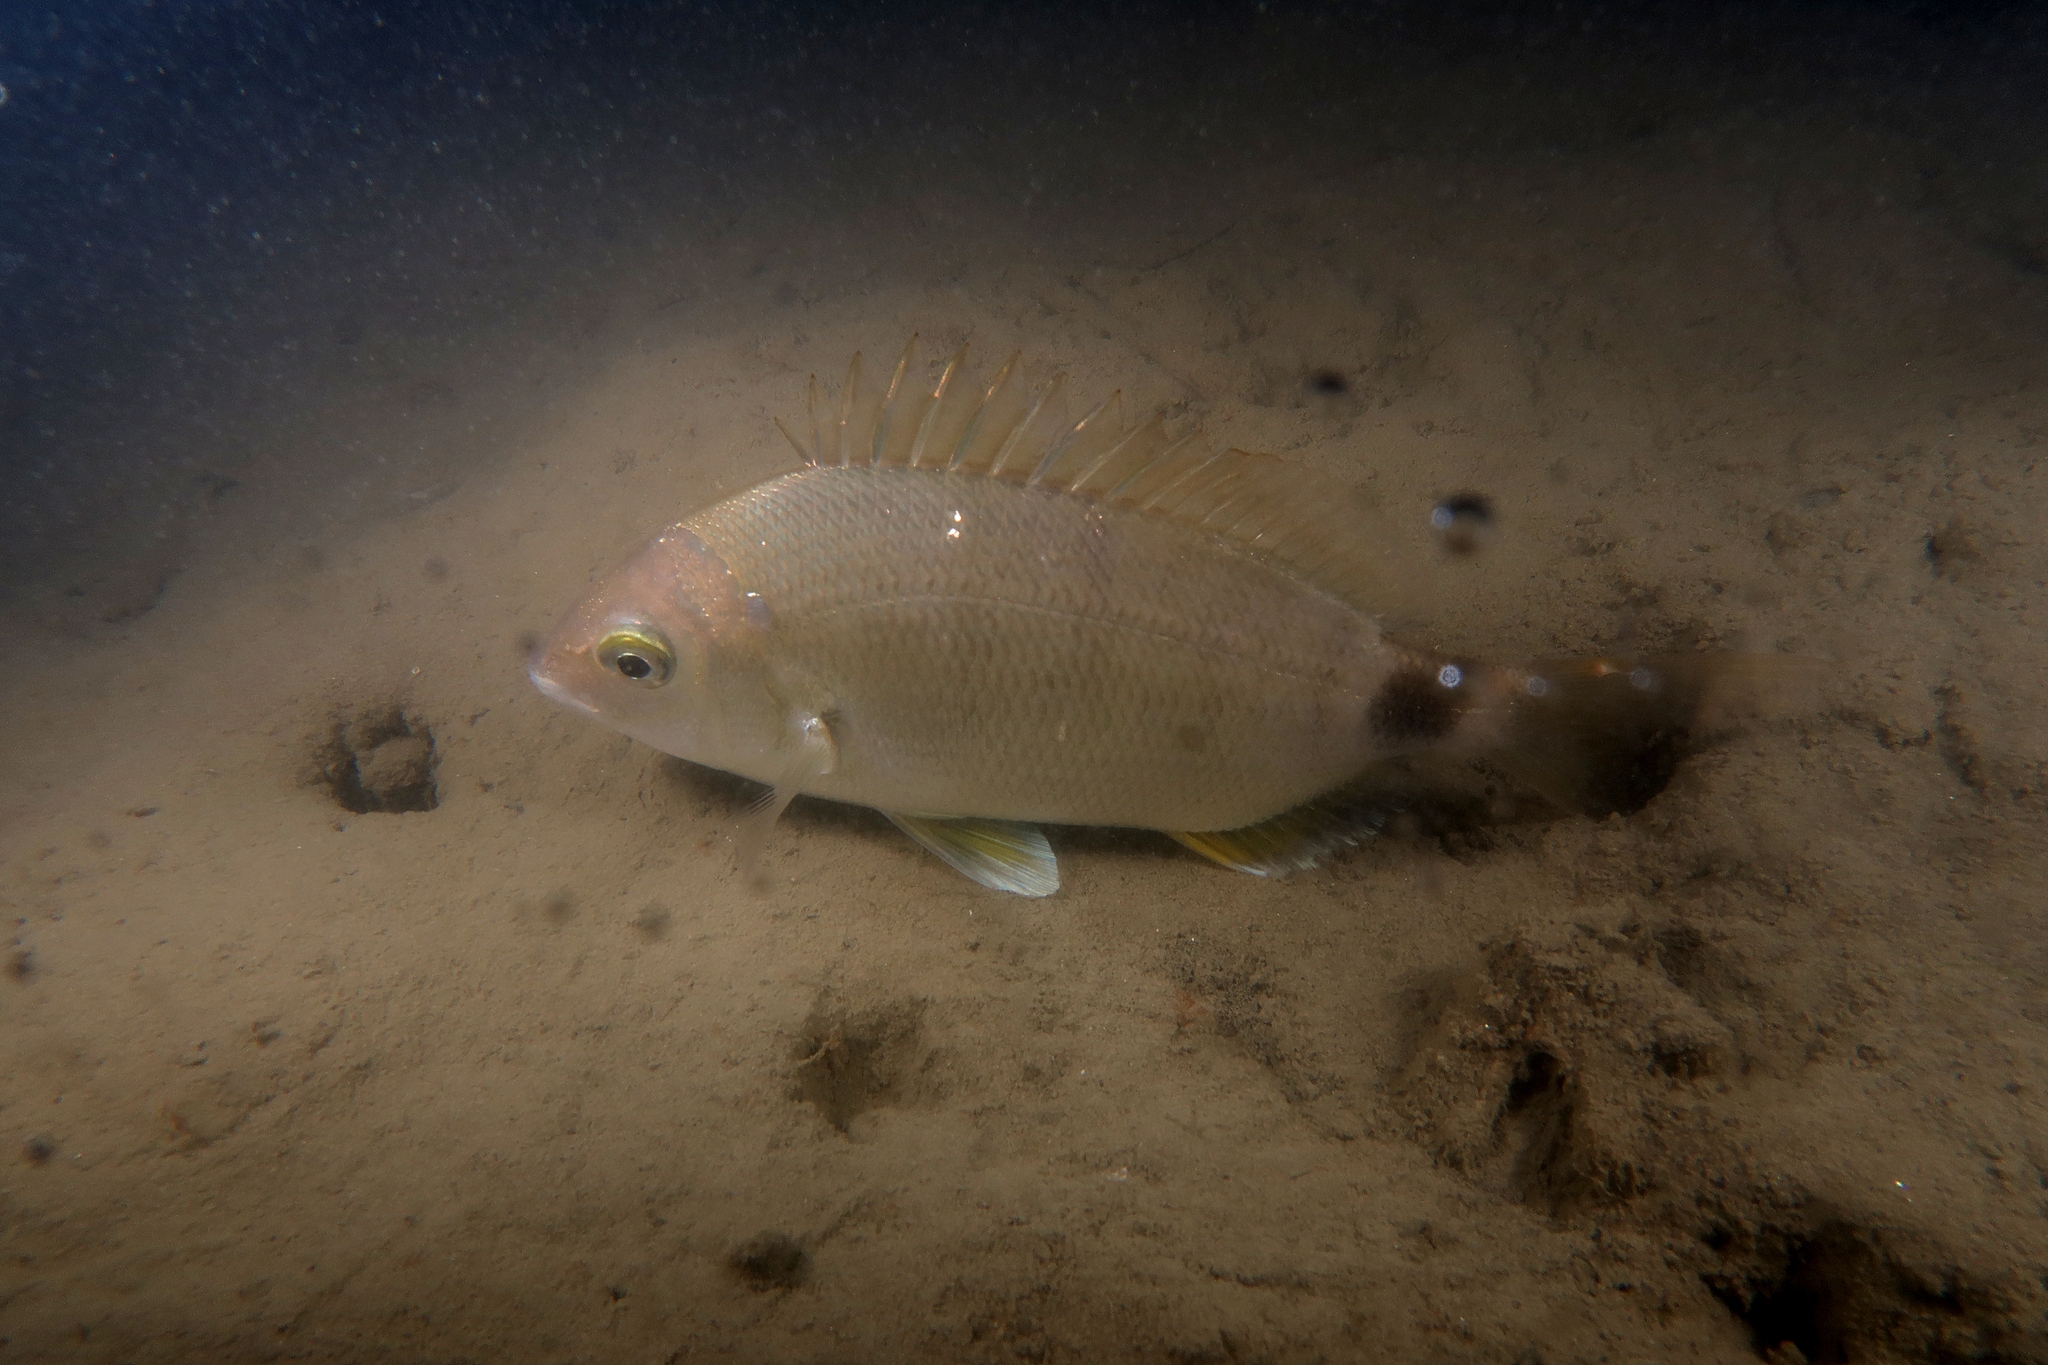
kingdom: Animalia
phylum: Chordata
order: Perciformes
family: Sparidae
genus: Diplodus
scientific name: Diplodus annularis
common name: Annular seabream
